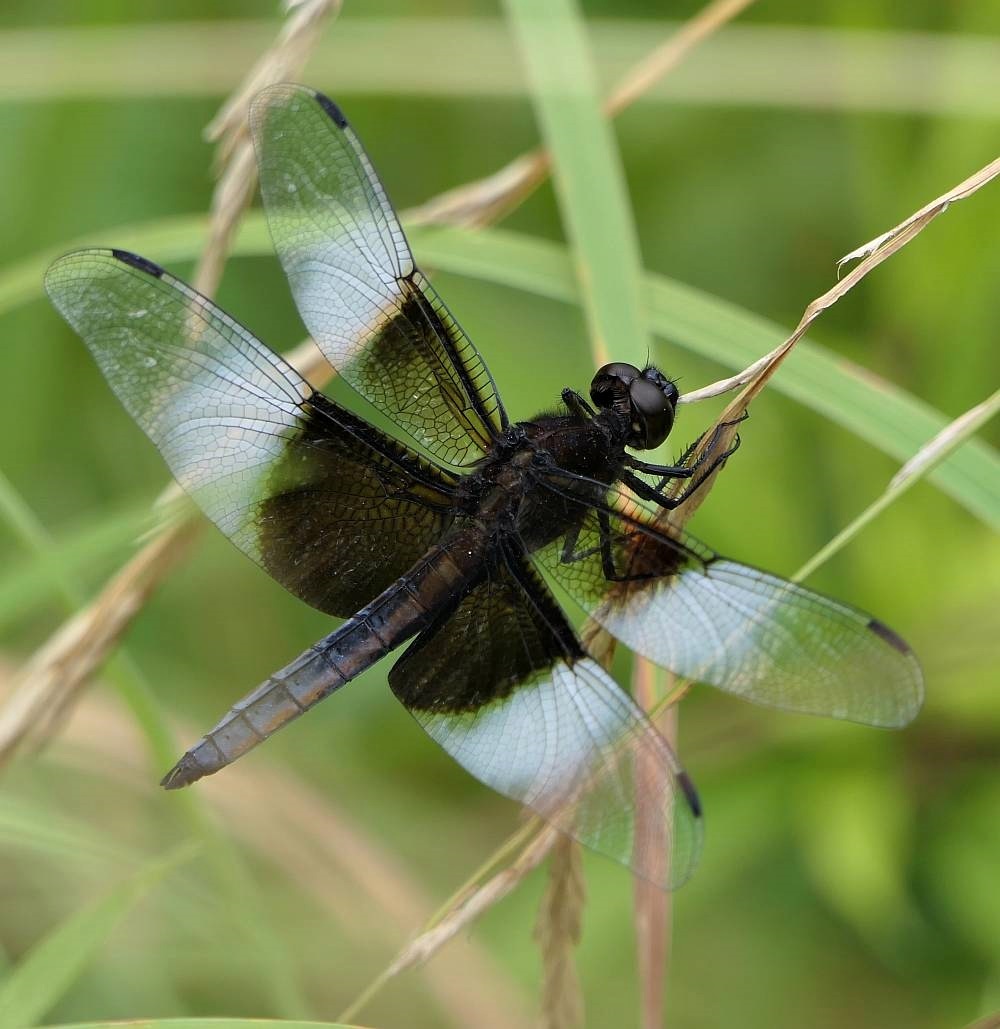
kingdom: Animalia
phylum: Arthropoda
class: Insecta
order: Odonata
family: Libellulidae
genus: Libellula
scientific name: Libellula luctuosa
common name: Widow skimmer
